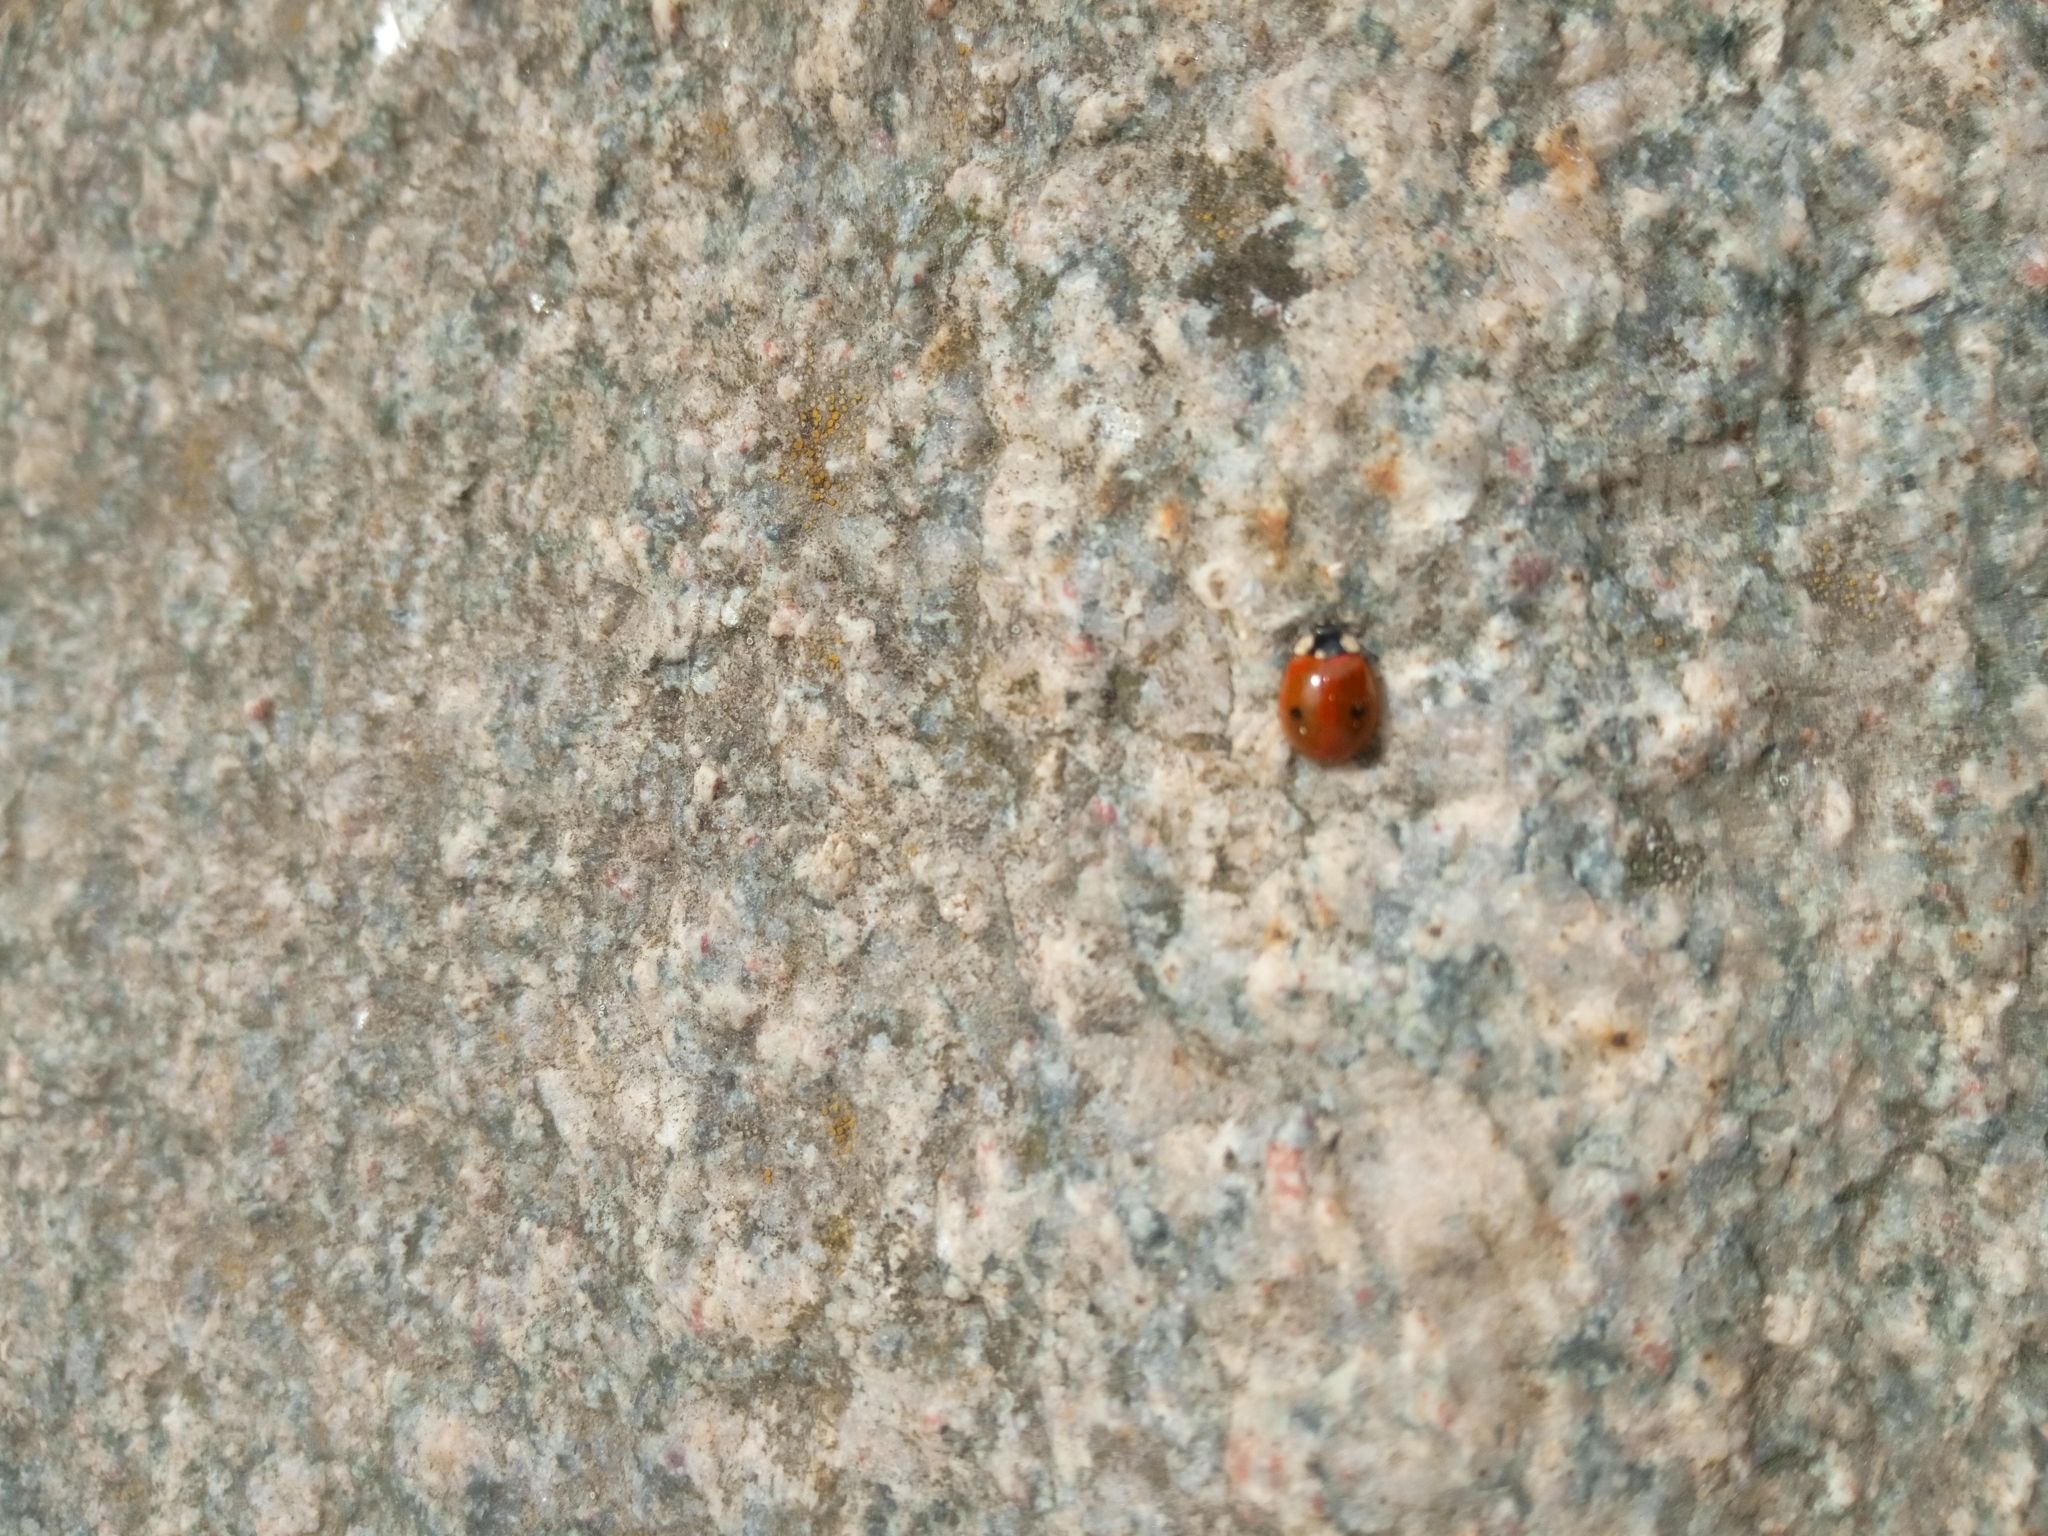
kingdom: Animalia
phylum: Arthropoda
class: Insecta
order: Coleoptera
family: Coccinellidae
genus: Adalia
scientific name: Adalia bipunctata
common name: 2-spot ladybird
